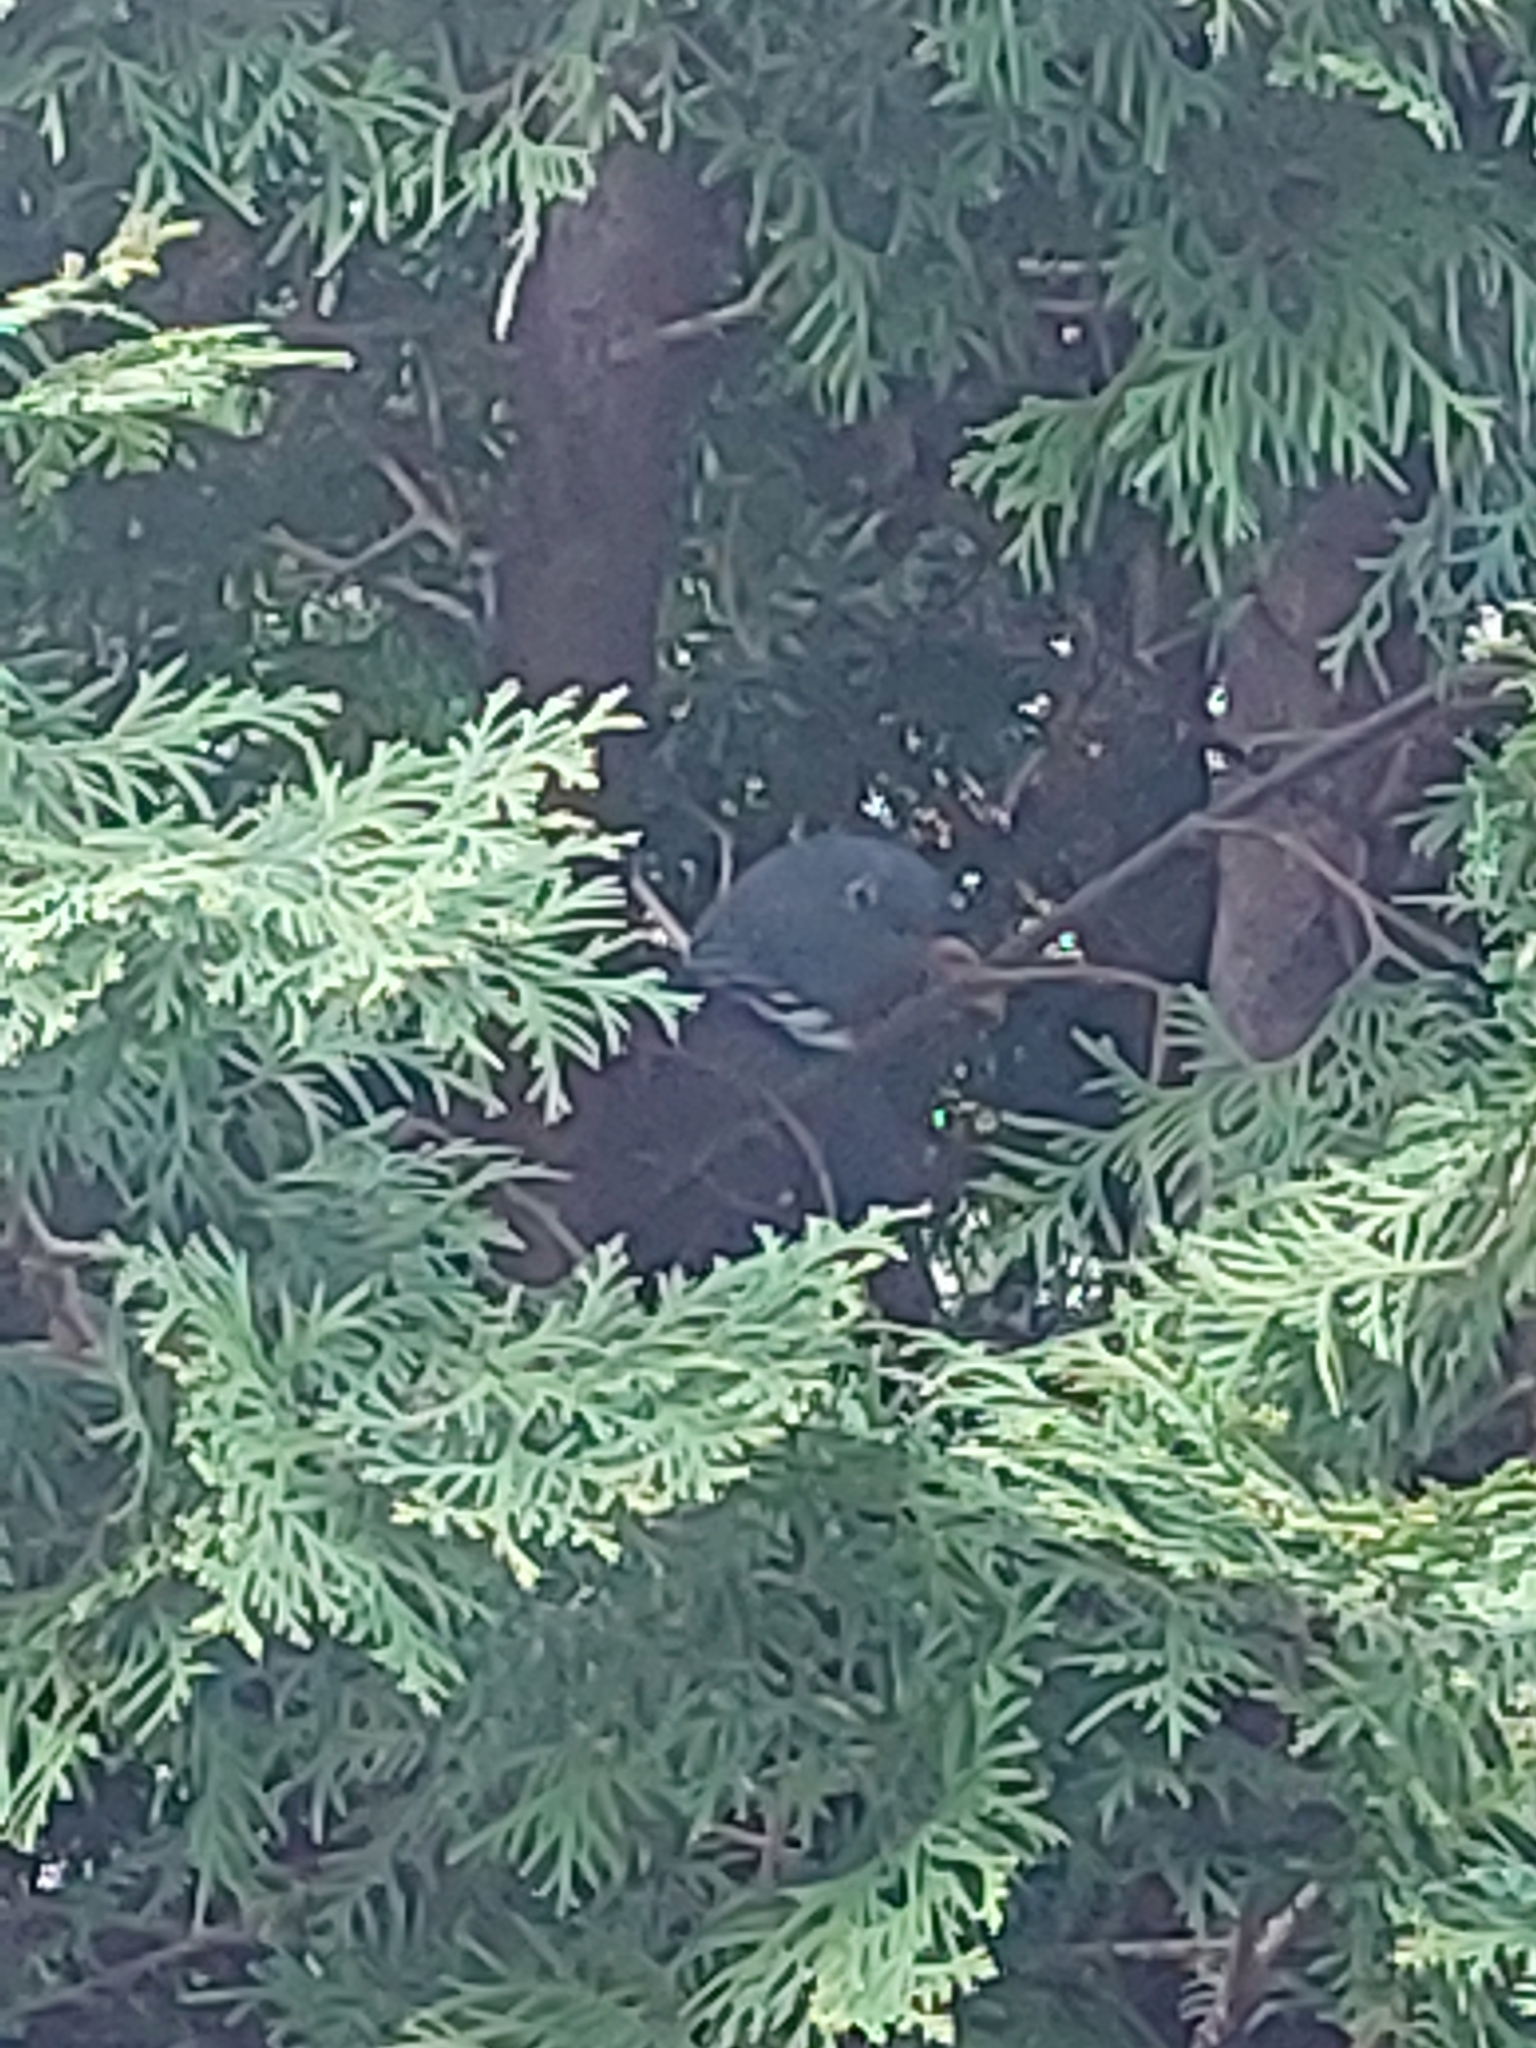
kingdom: Animalia
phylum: Chordata
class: Aves
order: Columbiformes
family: Columbidae
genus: Columba
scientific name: Columba palumbus
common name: Common wood pigeon
